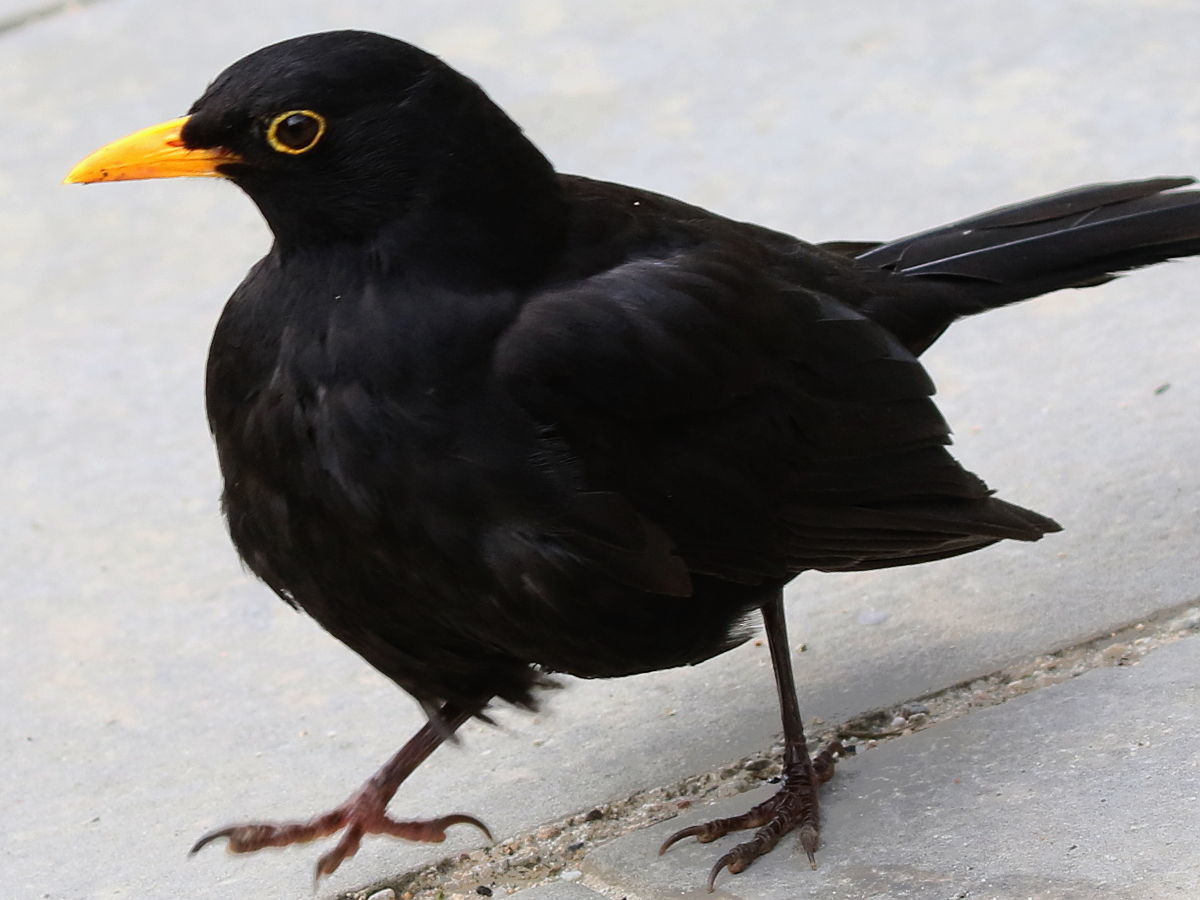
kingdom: Animalia
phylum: Chordata
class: Aves
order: Passeriformes
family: Turdidae
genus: Turdus
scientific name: Turdus merula
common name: Common blackbird
